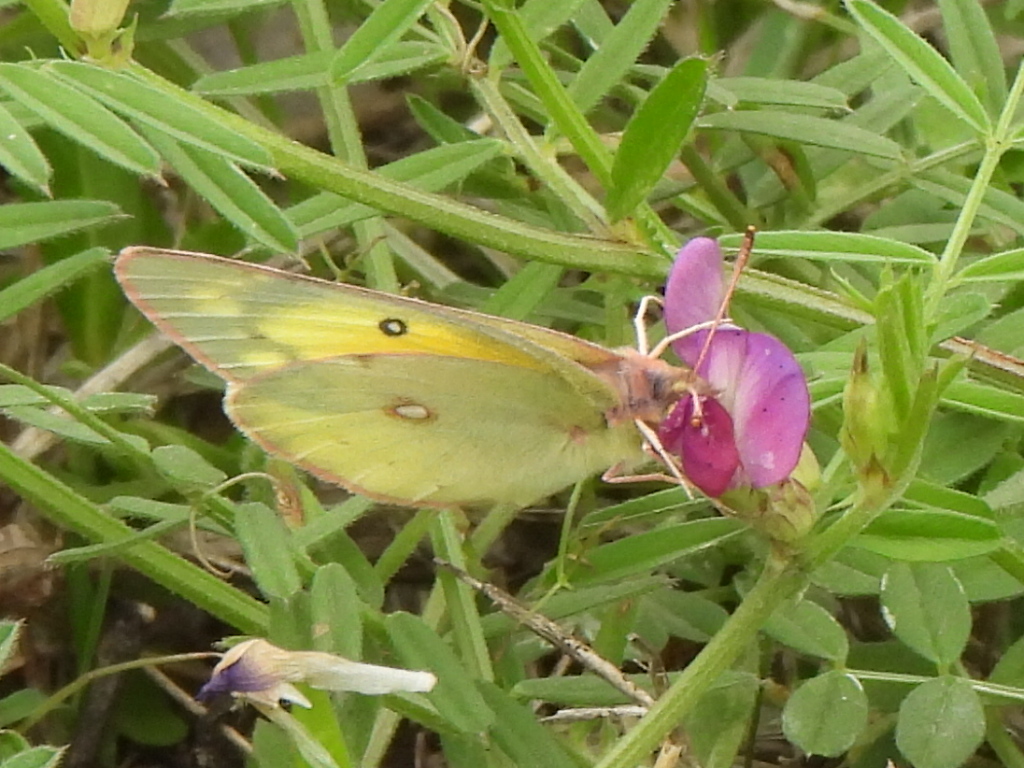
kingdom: Animalia
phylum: Arthropoda
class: Insecta
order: Lepidoptera
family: Pieridae
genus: Colias
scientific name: Colias eurytheme
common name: Alfalfa butterfly
